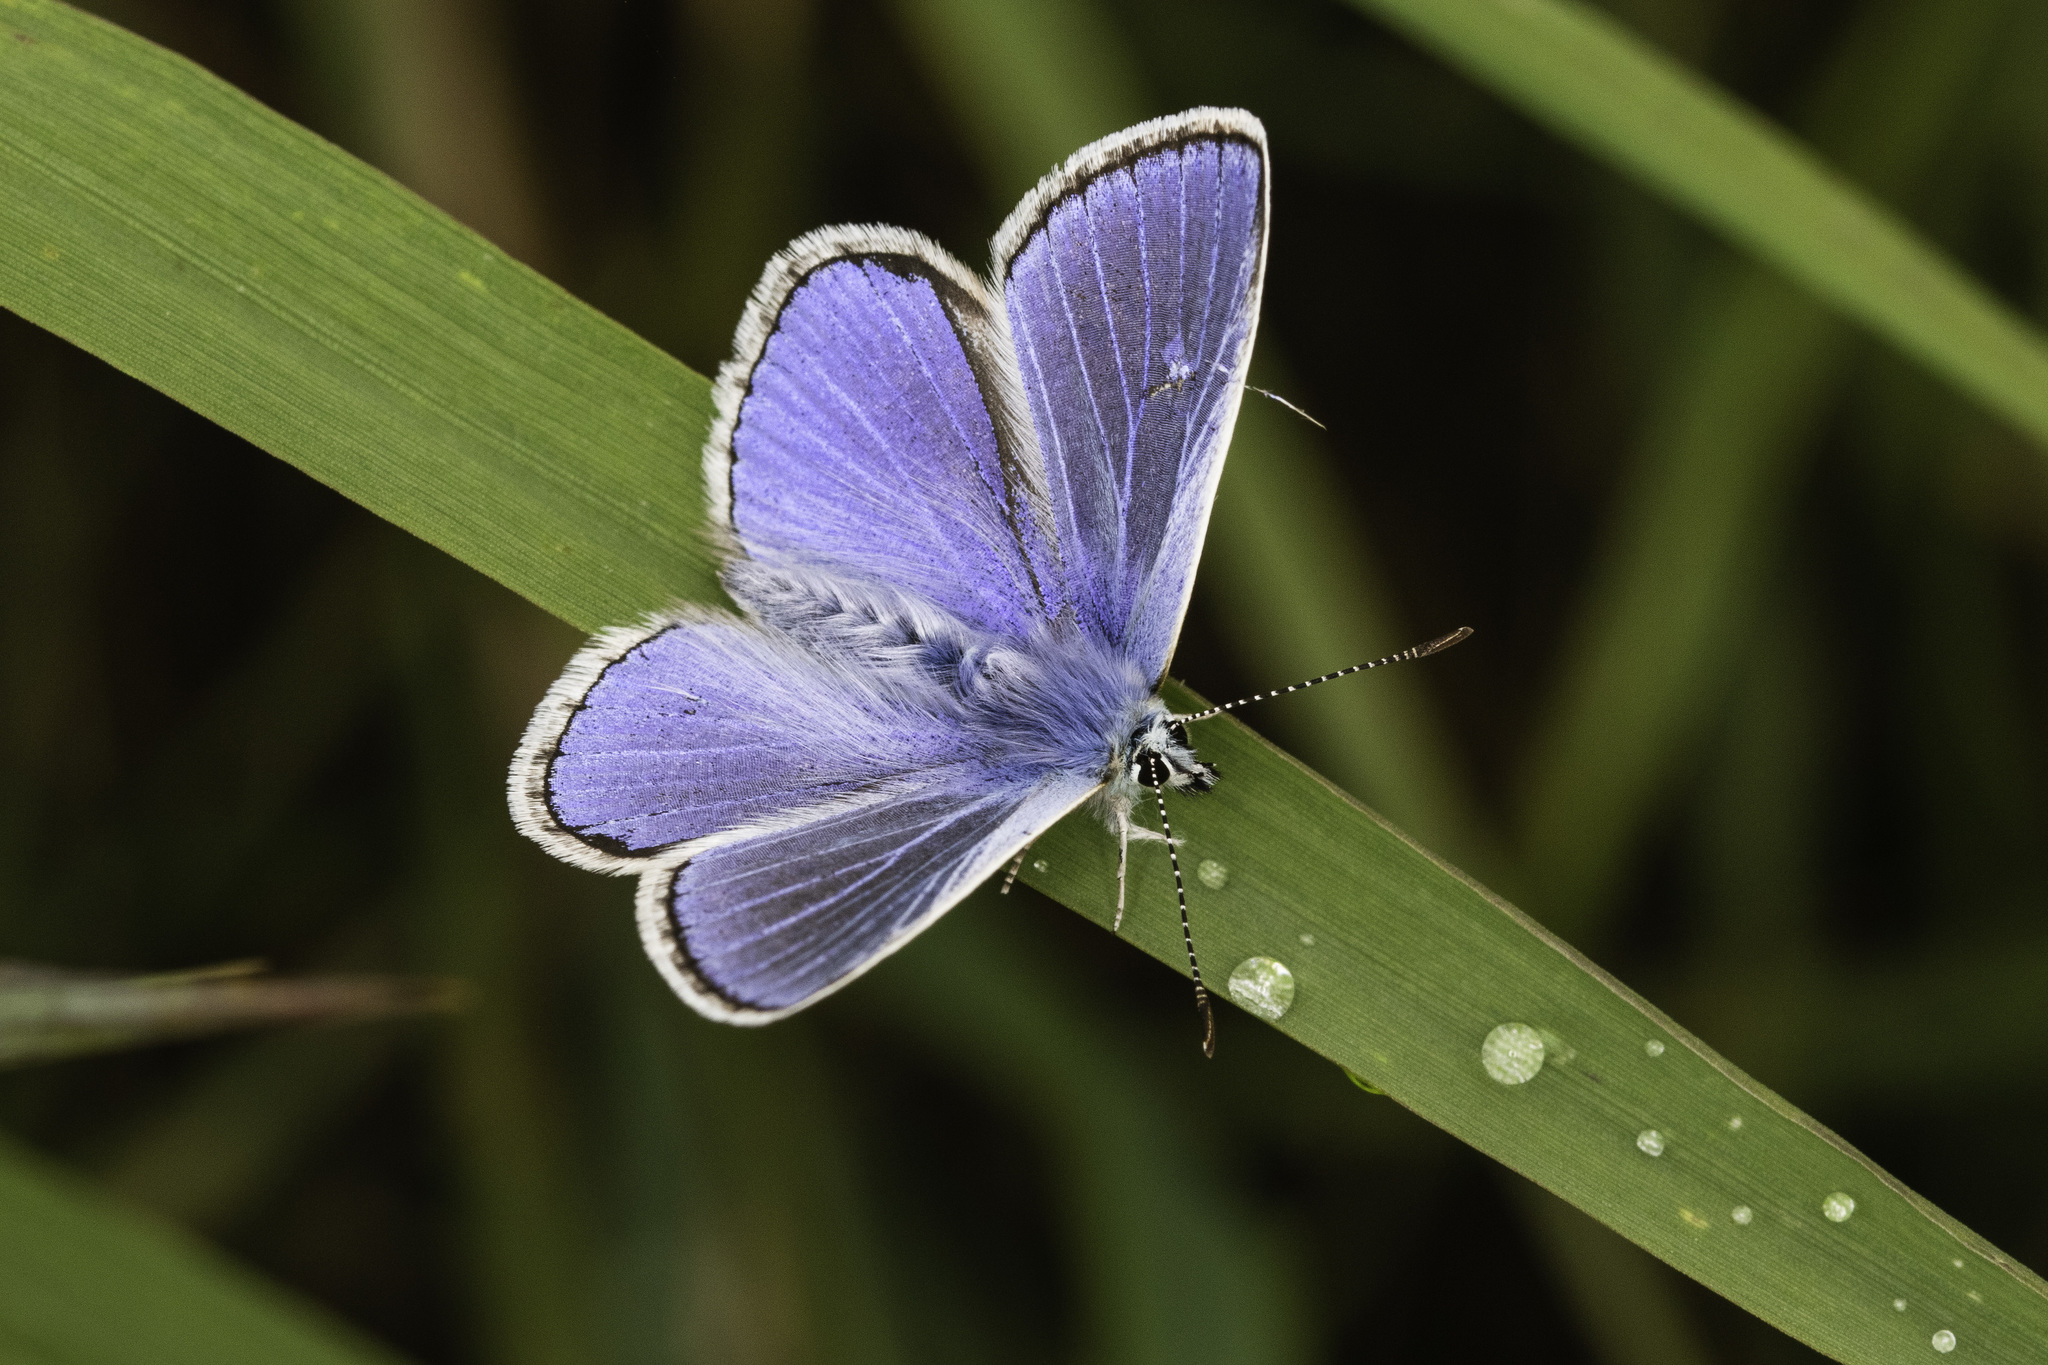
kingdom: Animalia
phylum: Arthropoda
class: Insecta
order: Lepidoptera
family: Lycaenidae
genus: Polyommatus
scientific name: Polyommatus icarus
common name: Common blue
